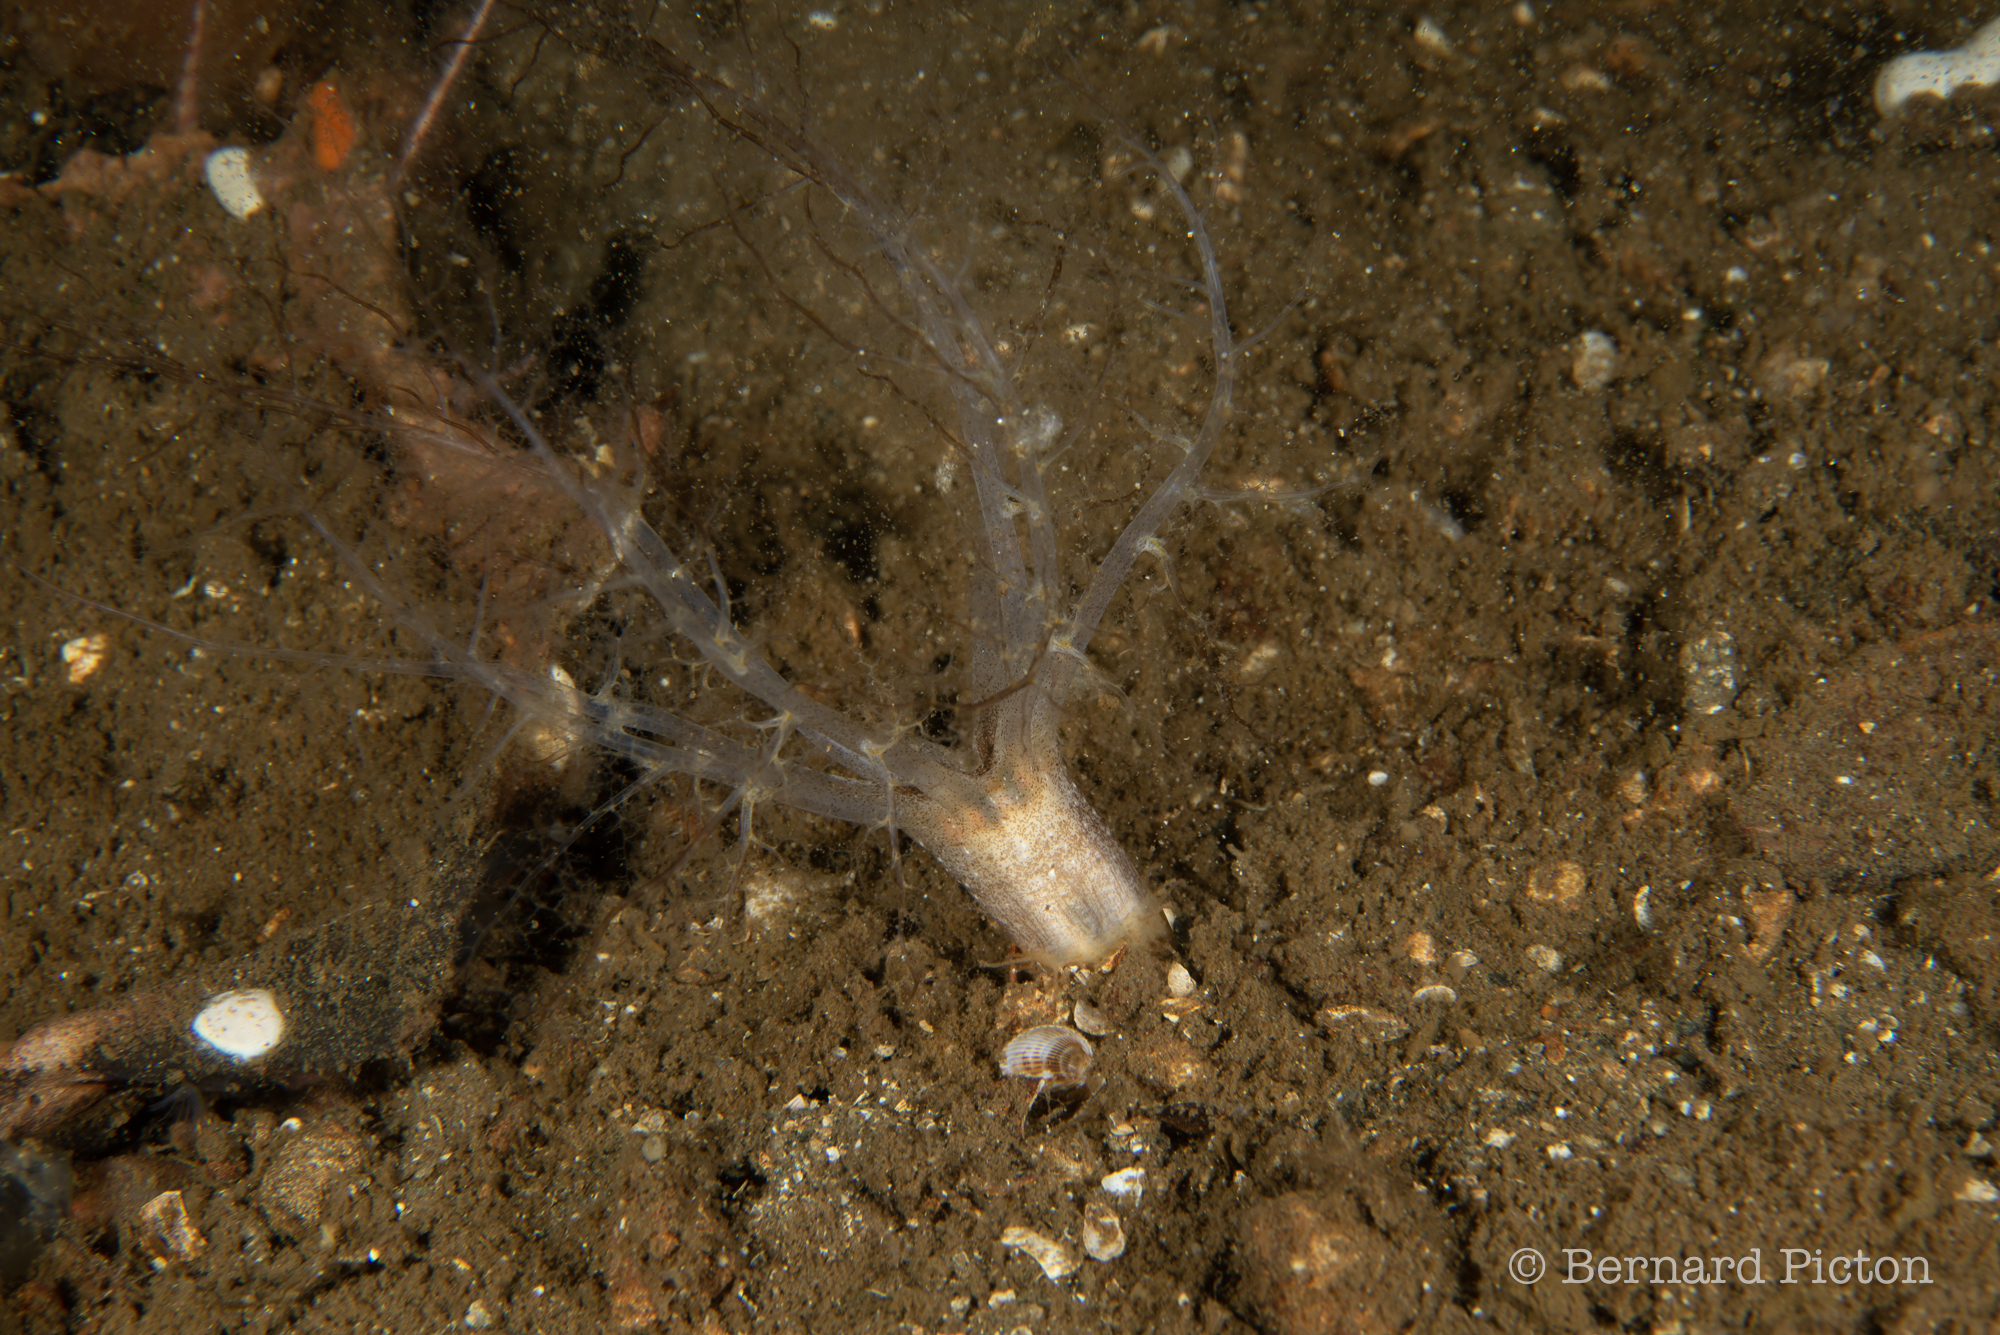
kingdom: Animalia
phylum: Echinodermata
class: Holothuroidea
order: Dendrochirotida
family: Phyllophoridae
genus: Thyone
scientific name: Thyone fusus
